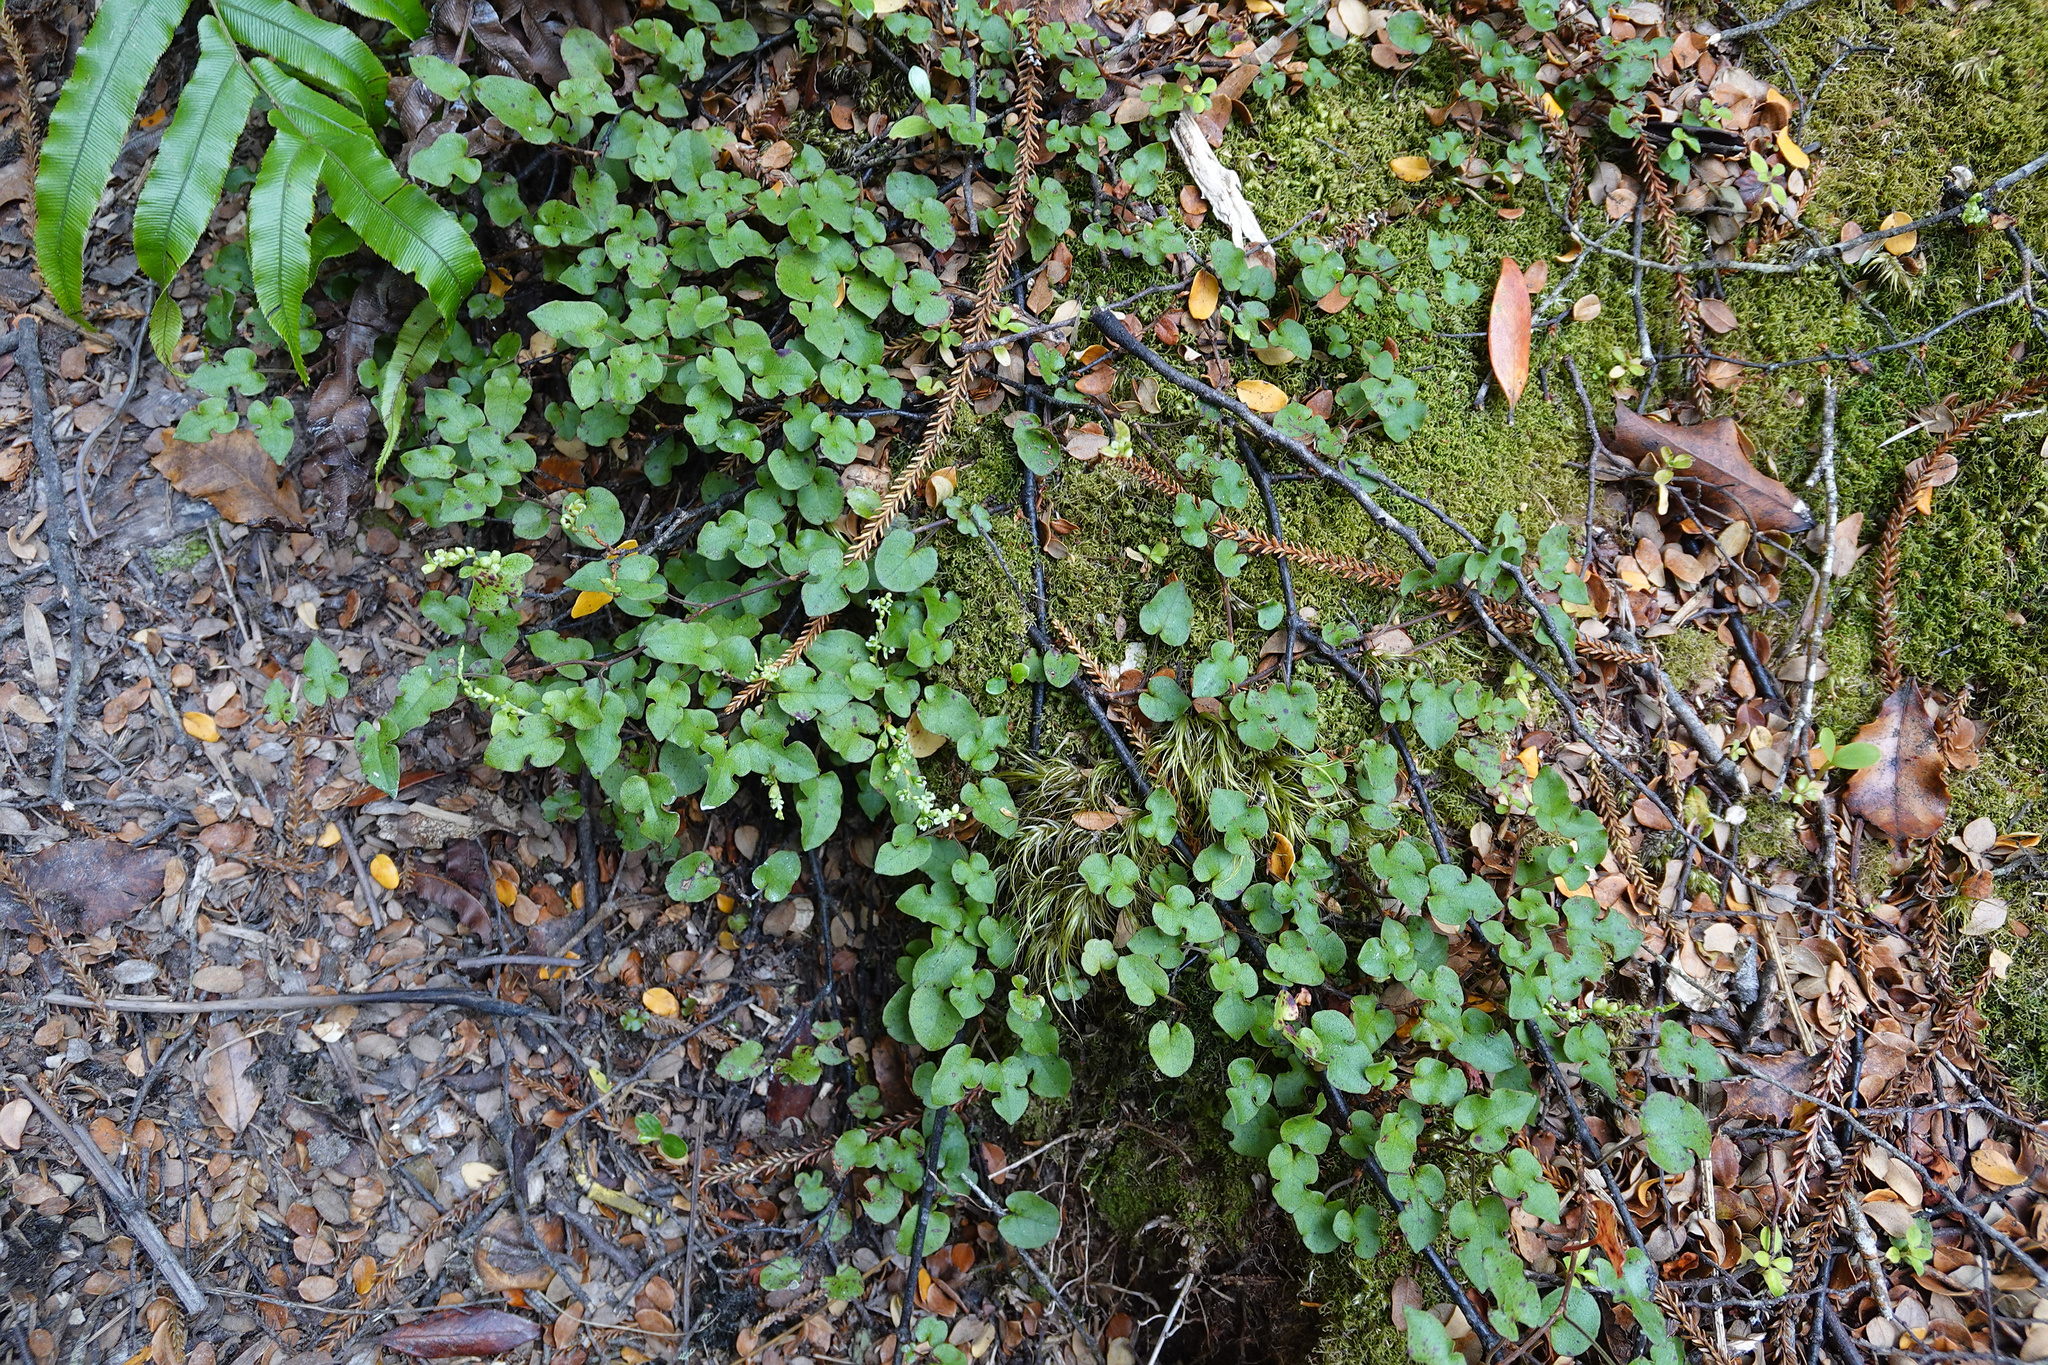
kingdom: Plantae
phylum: Tracheophyta
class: Magnoliopsida
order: Caryophyllales
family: Polygonaceae
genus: Muehlenbeckia
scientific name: Muehlenbeckia australis
